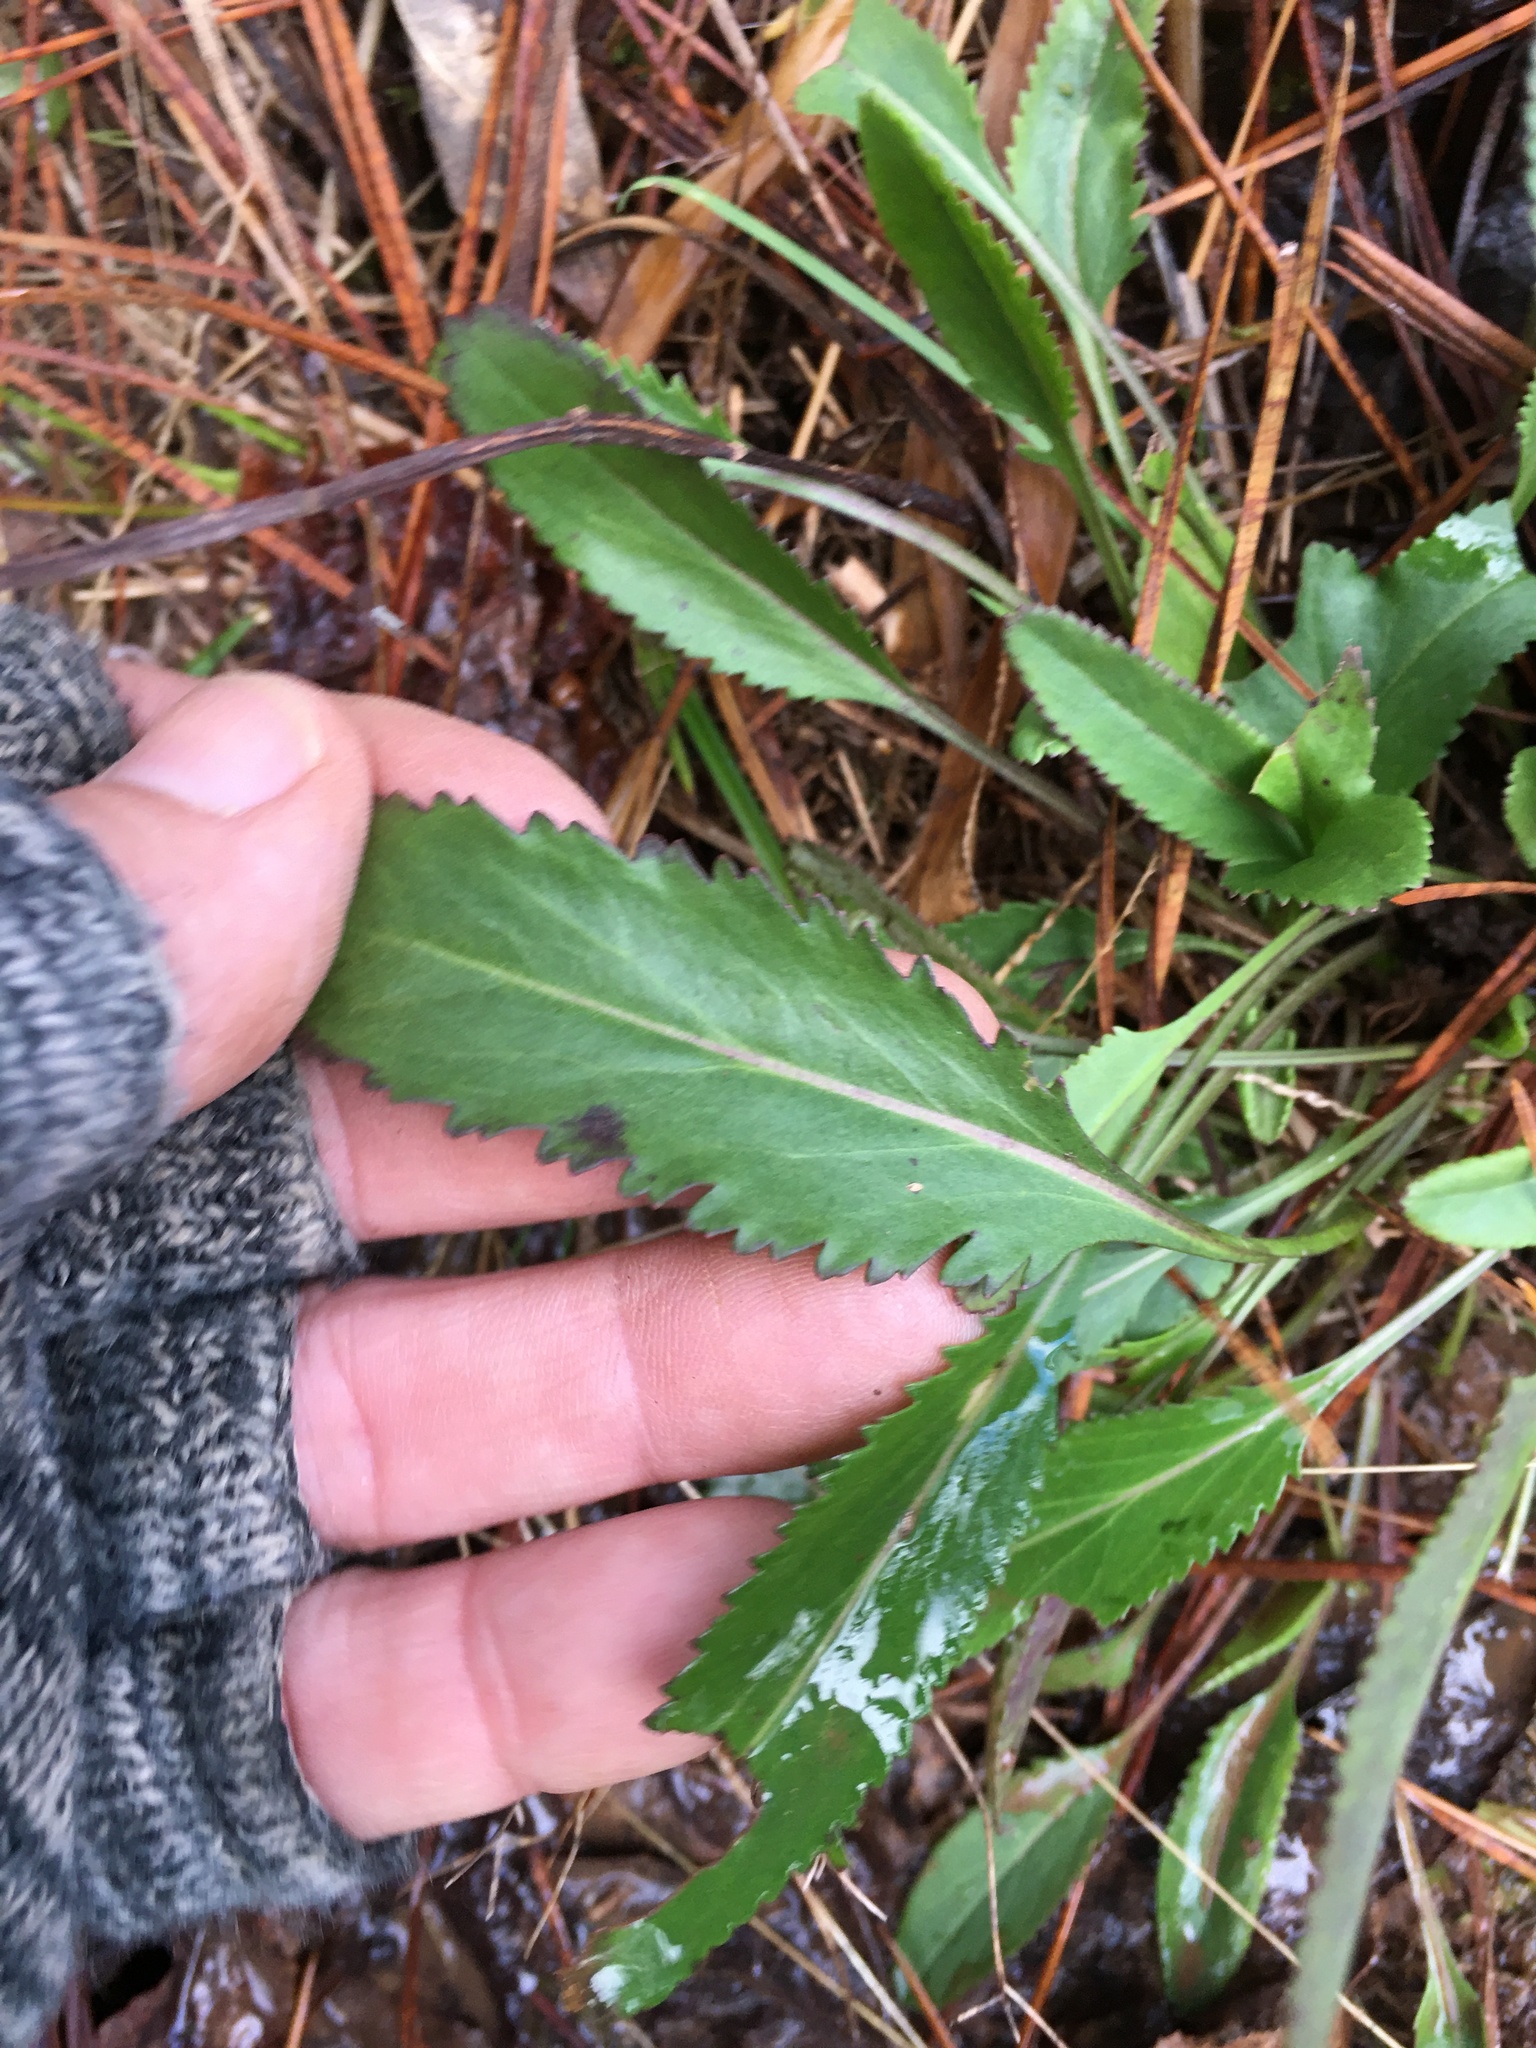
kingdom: Plantae
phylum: Tracheophyta
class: Magnoliopsida
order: Asterales
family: Asteraceae
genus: Packera
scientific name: Packera anonyma
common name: Small ragwort
